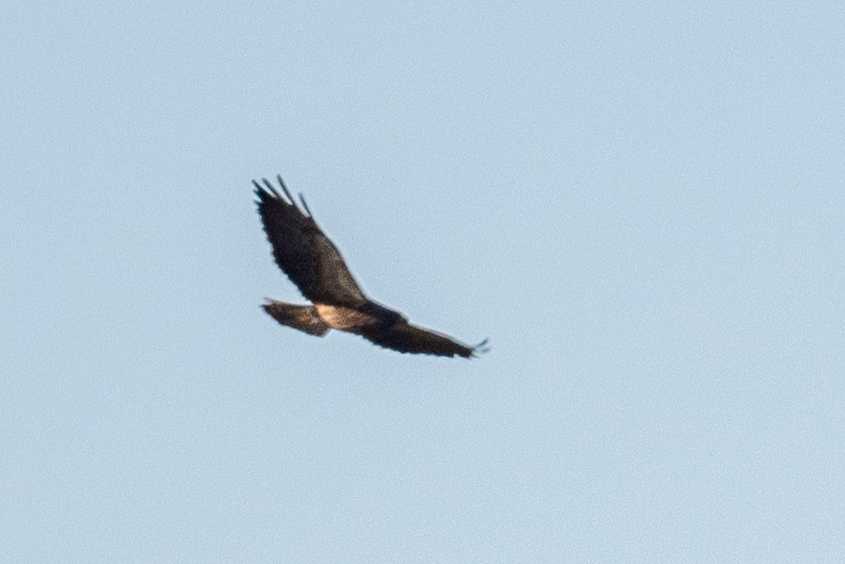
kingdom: Animalia
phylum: Chordata
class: Aves
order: Accipitriformes
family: Accipitridae
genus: Buteo
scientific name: Buteo swainsoni
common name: Swainson's hawk
